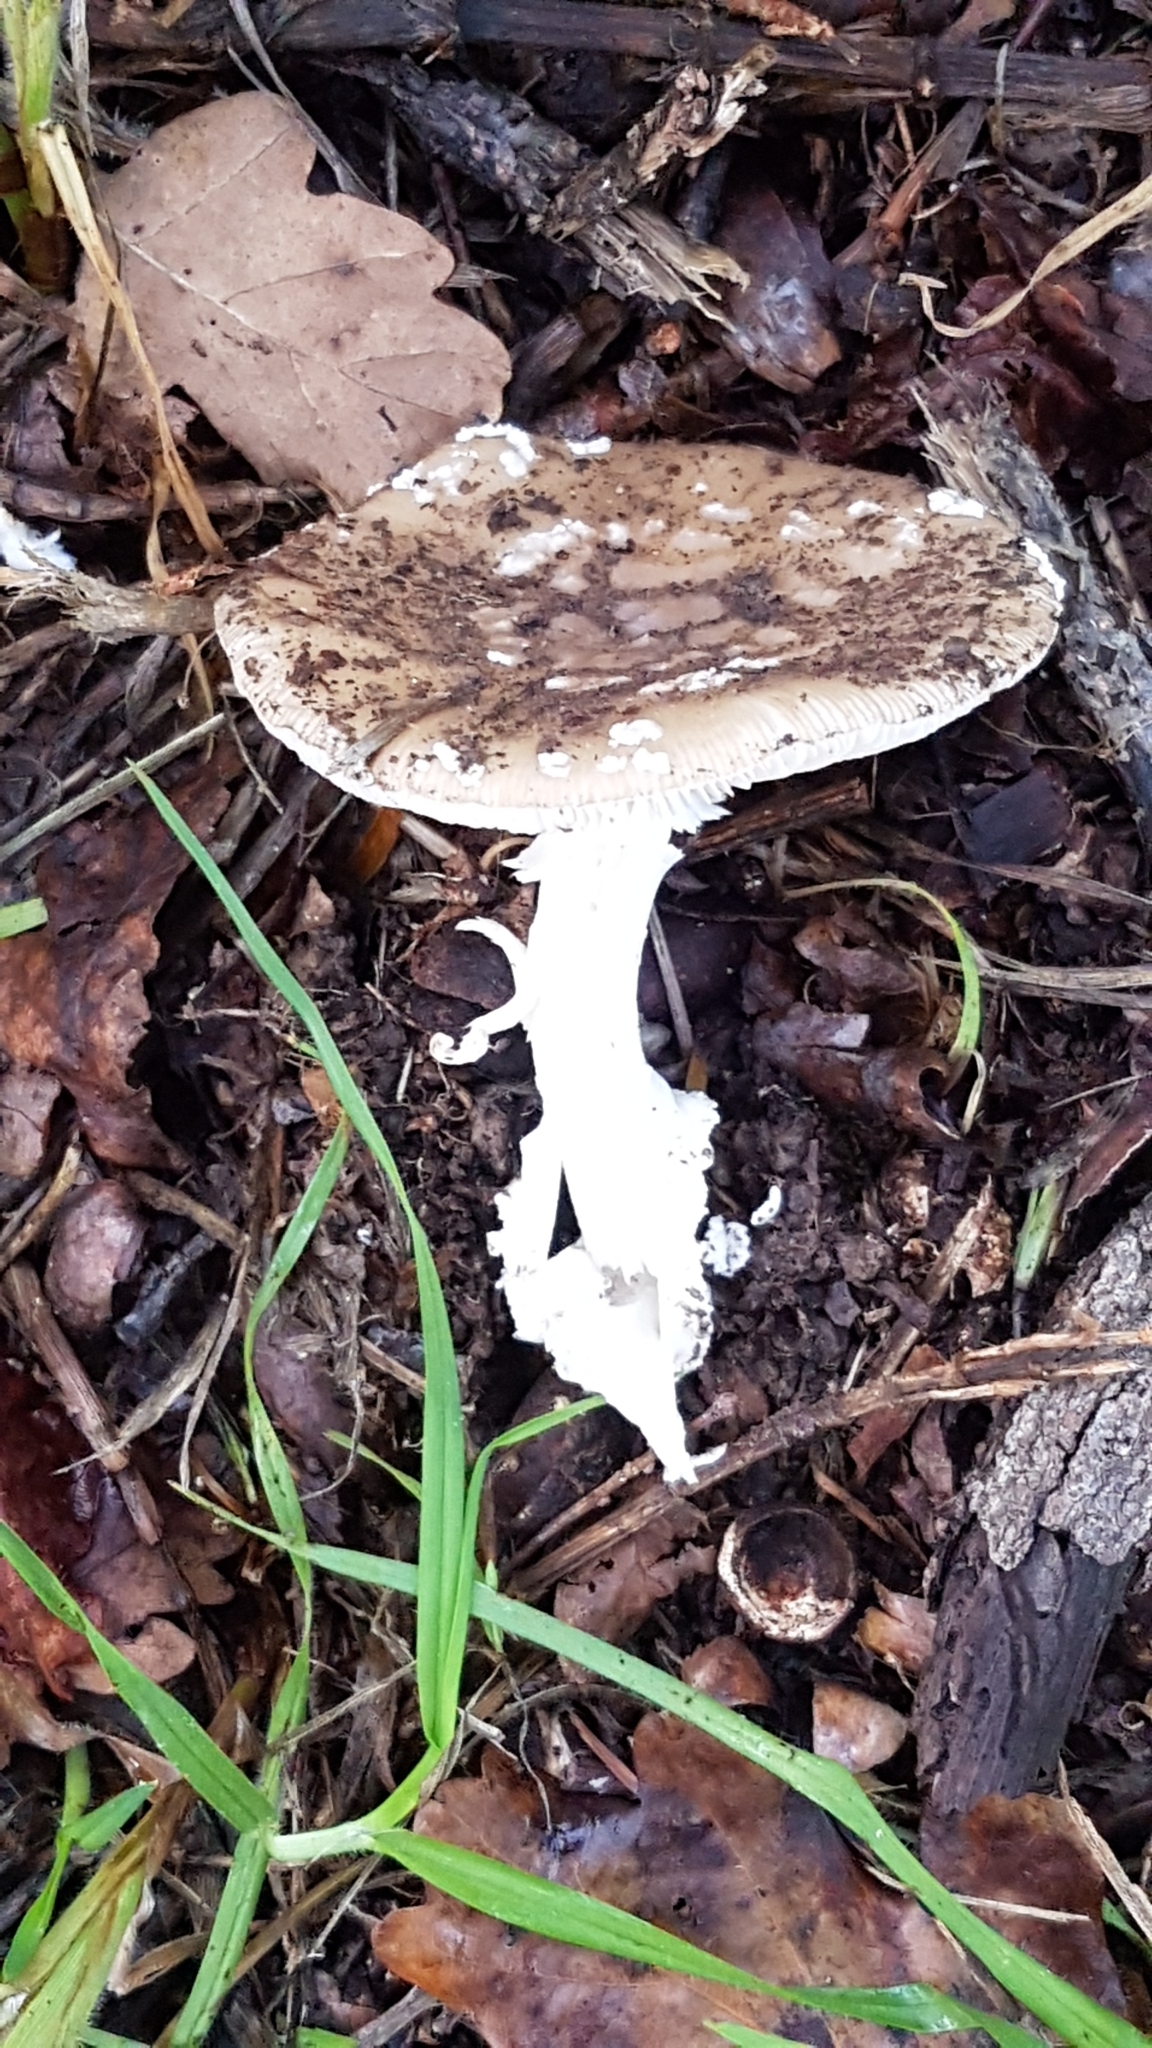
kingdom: Fungi
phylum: Basidiomycota
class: Agaricomycetes
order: Agaricales
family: Amanitaceae
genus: Amanita
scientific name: Amanita pantherina
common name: Panthercap
